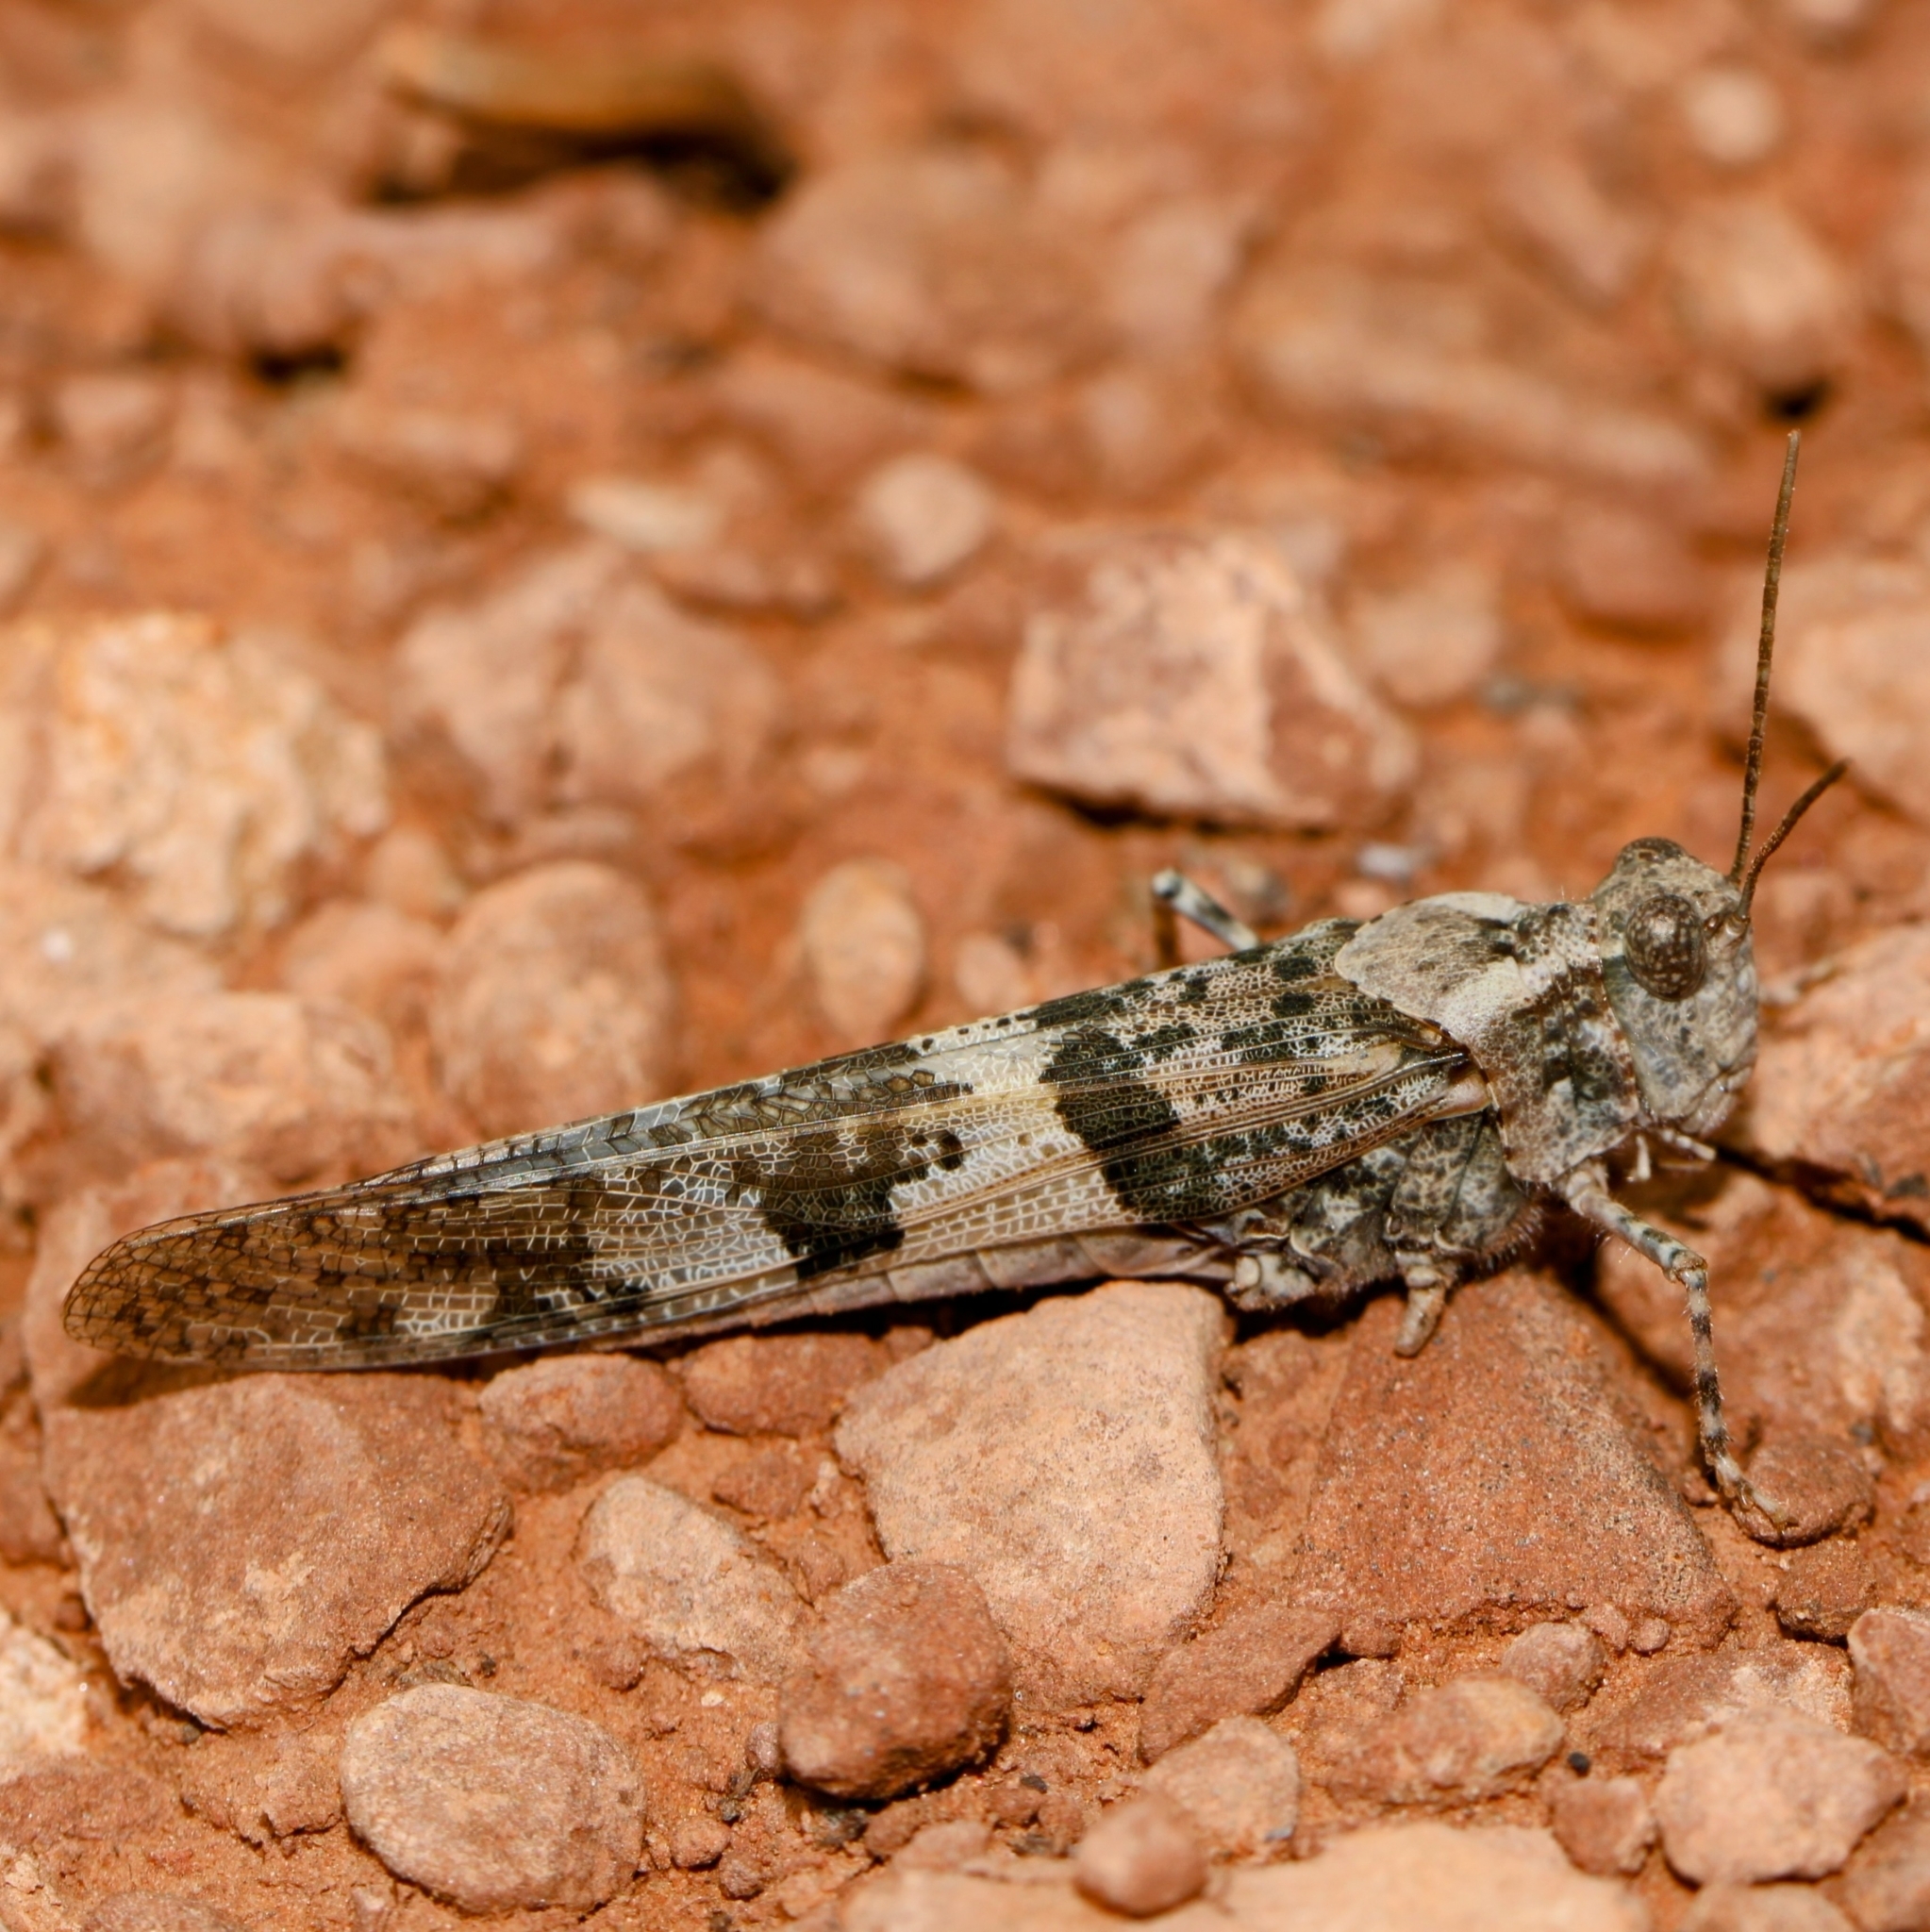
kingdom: Animalia
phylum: Arthropoda
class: Insecta
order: Orthoptera
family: Acrididae
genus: Trimerotropis
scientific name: Trimerotropis pallidipennis
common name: Pallid-winged grasshopper
